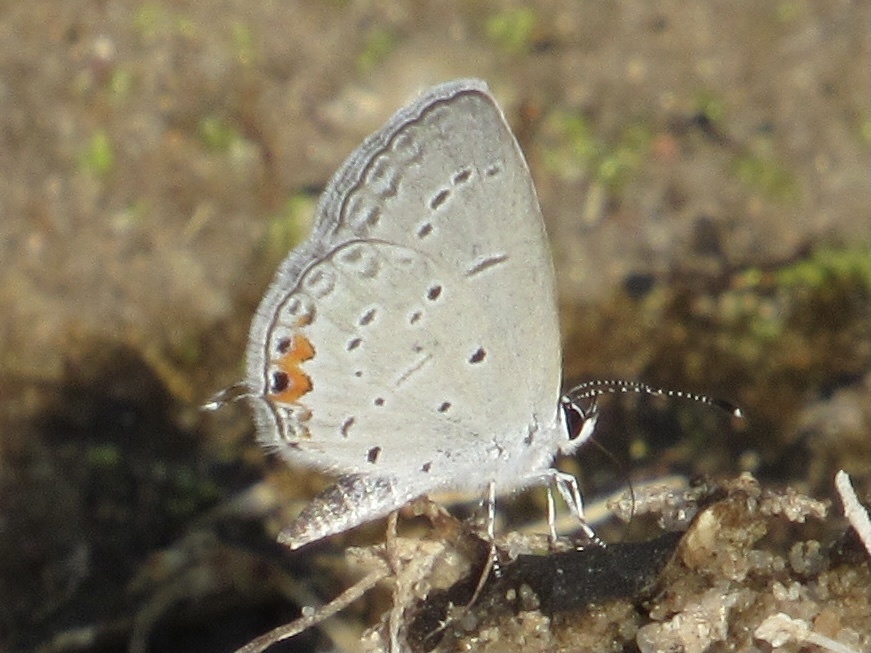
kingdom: Animalia
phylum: Arthropoda
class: Insecta
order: Lepidoptera
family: Lycaenidae
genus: Elkalyce
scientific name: Elkalyce comyntas
